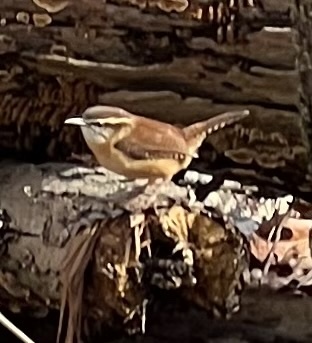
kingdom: Animalia
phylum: Chordata
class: Aves
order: Passeriformes
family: Troglodytidae
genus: Thryothorus
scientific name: Thryothorus ludovicianus
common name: Carolina wren
